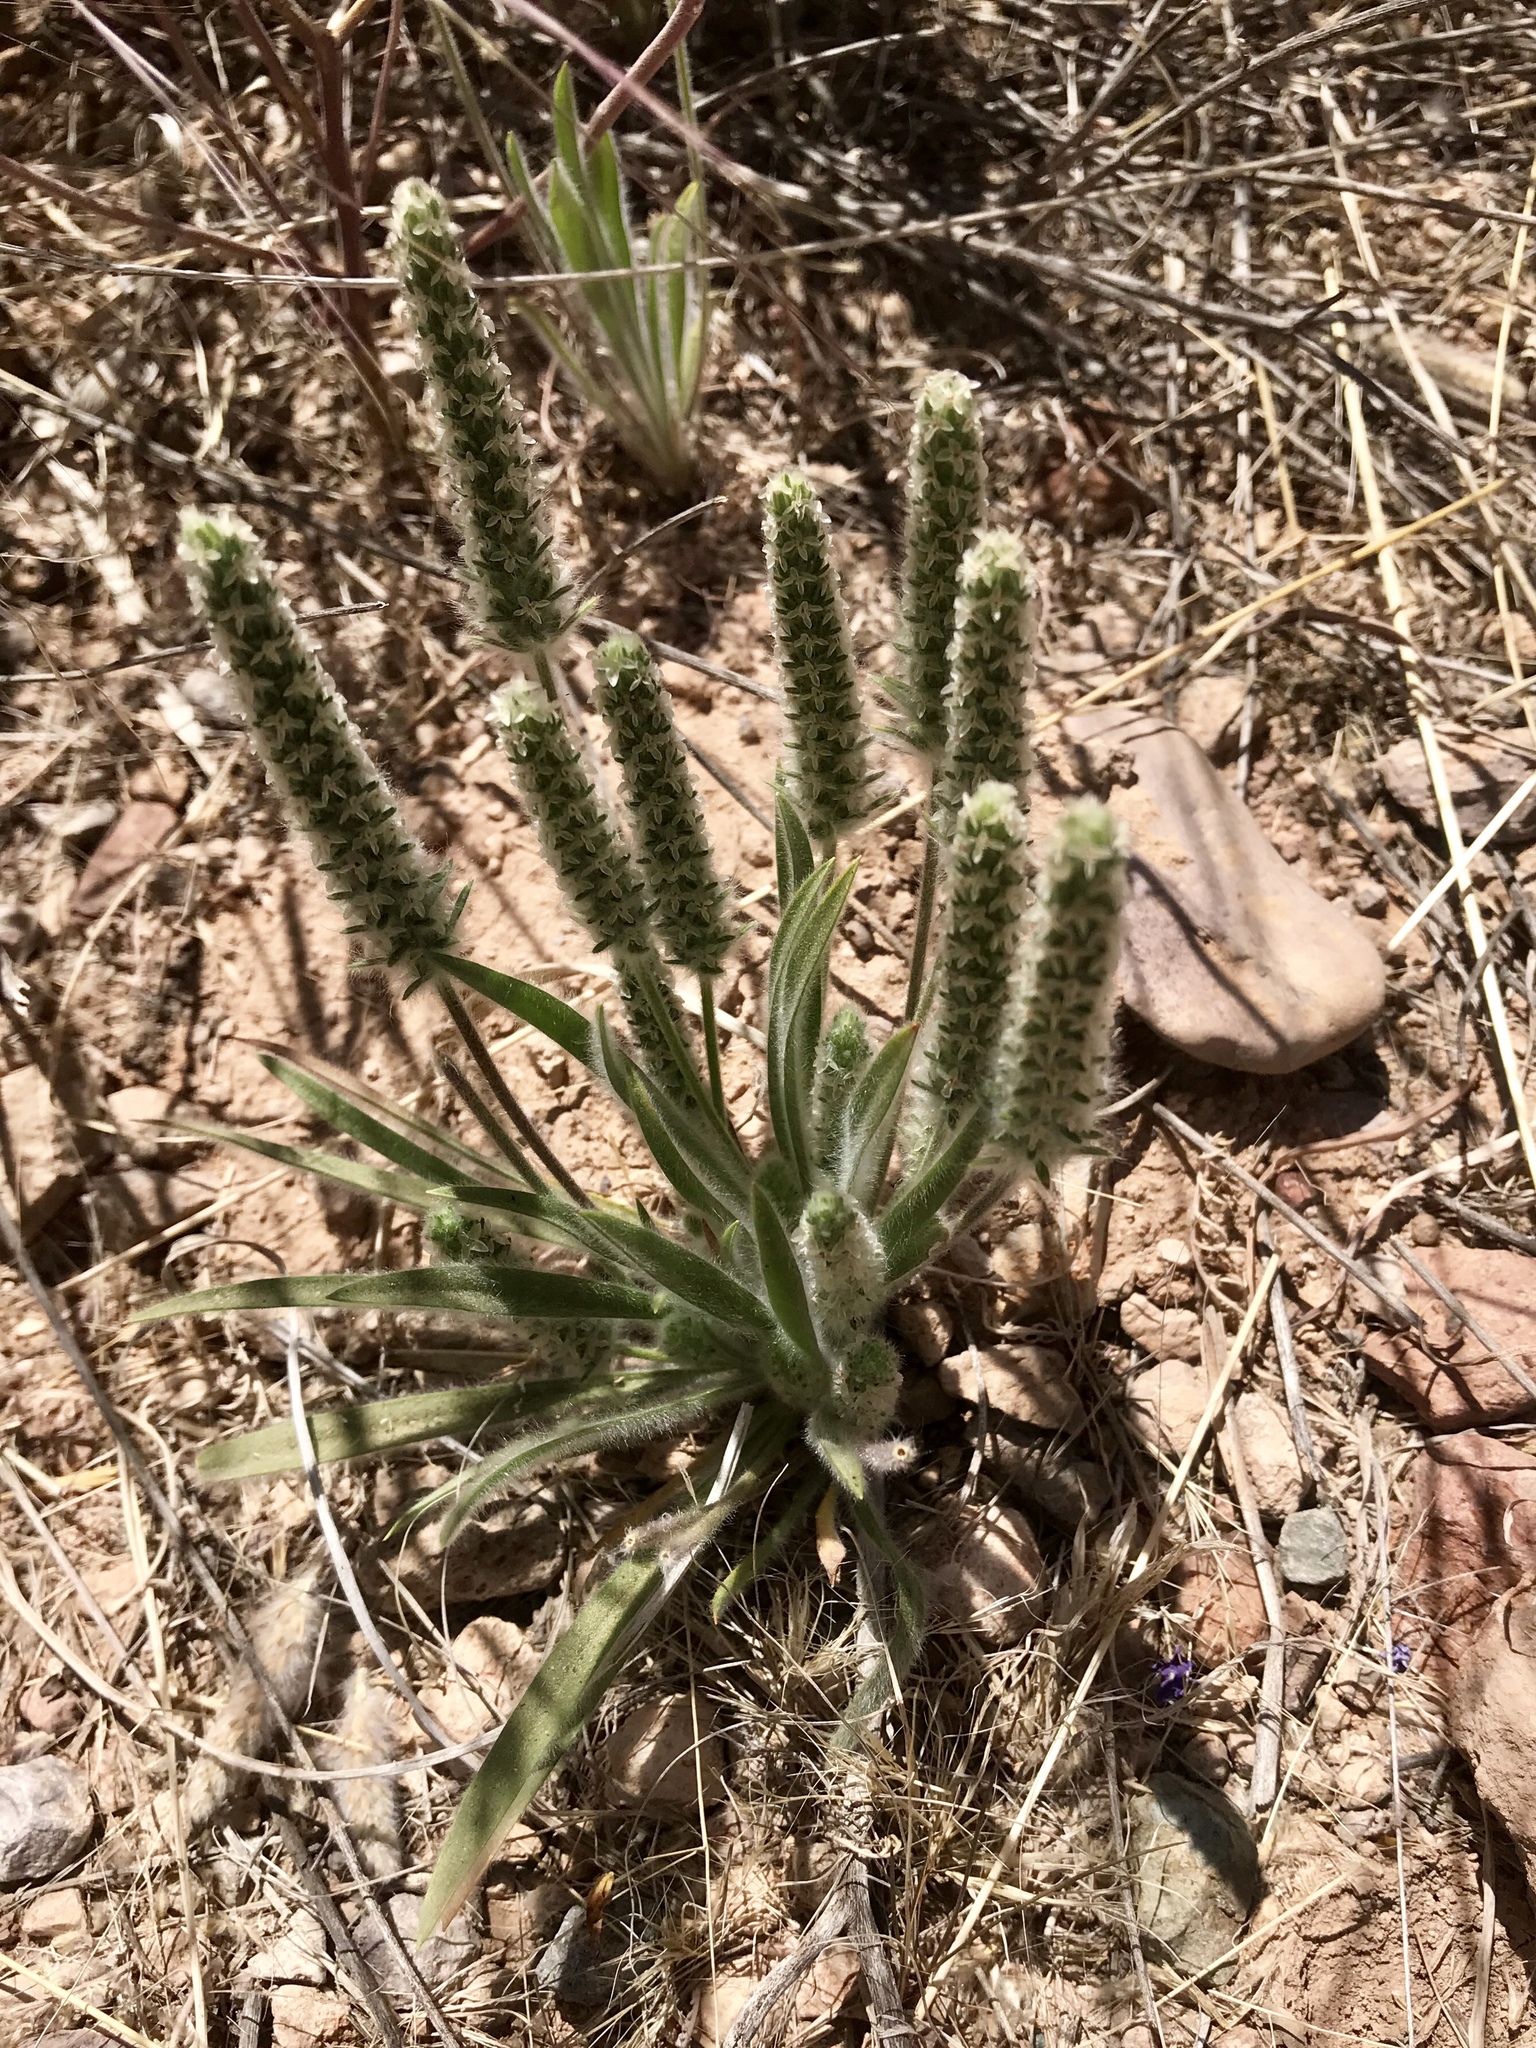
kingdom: Plantae
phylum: Tracheophyta
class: Magnoliopsida
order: Lamiales
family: Plantaginaceae
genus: Plantago
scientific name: Plantago patagonica
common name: Patagonia indian-wheat
